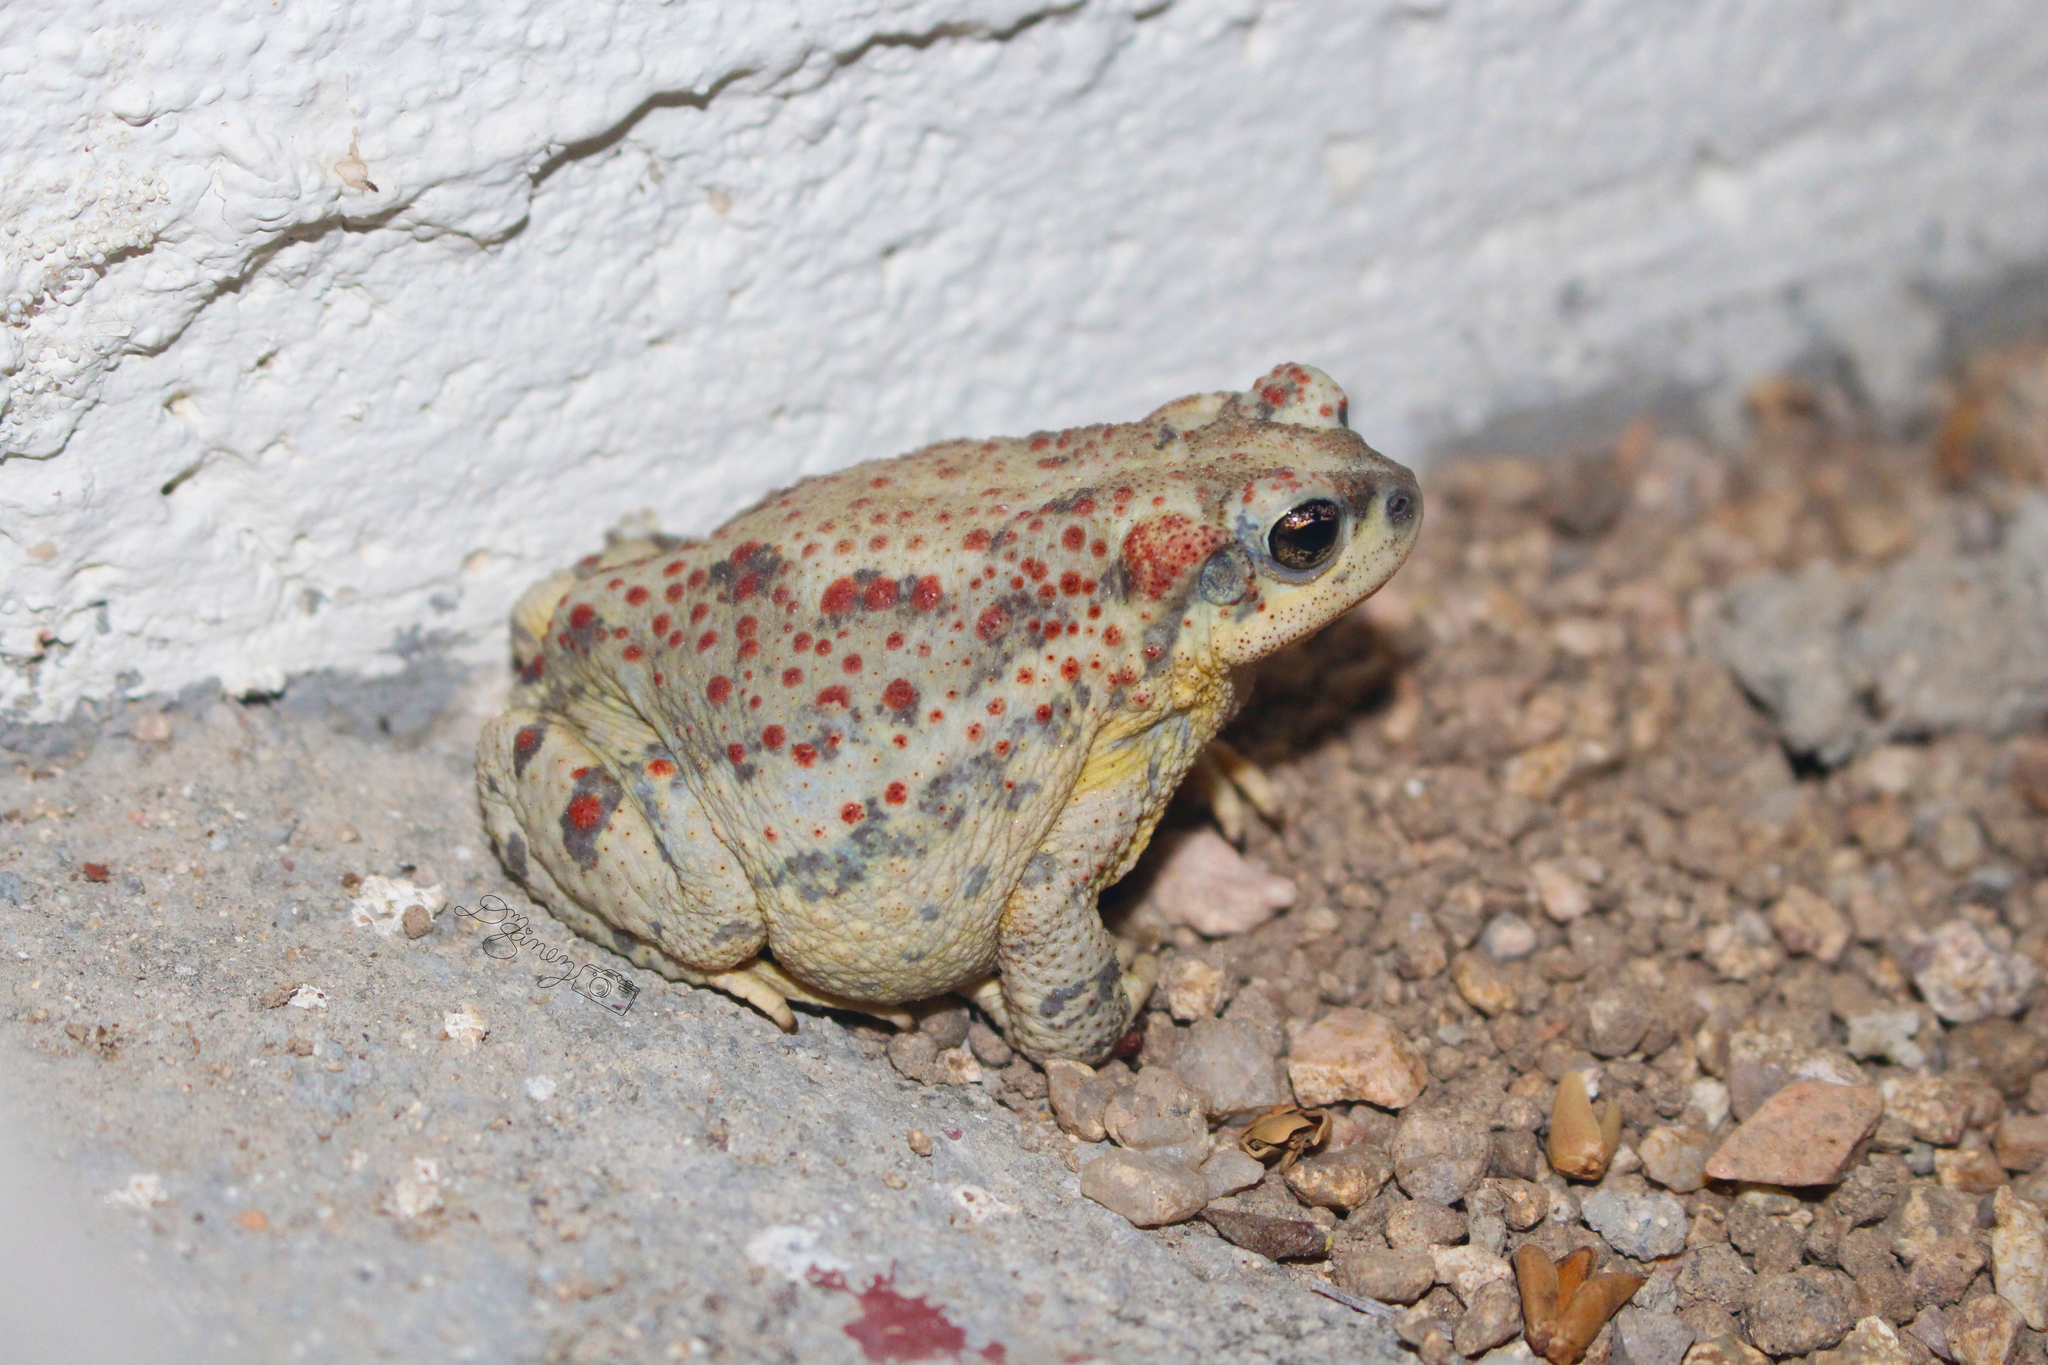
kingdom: Animalia
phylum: Chordata
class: Amphibia
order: Anura
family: Bufonidae
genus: Anaxyrus
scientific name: Anaxyrus punctatus
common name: Red-spotted toad
